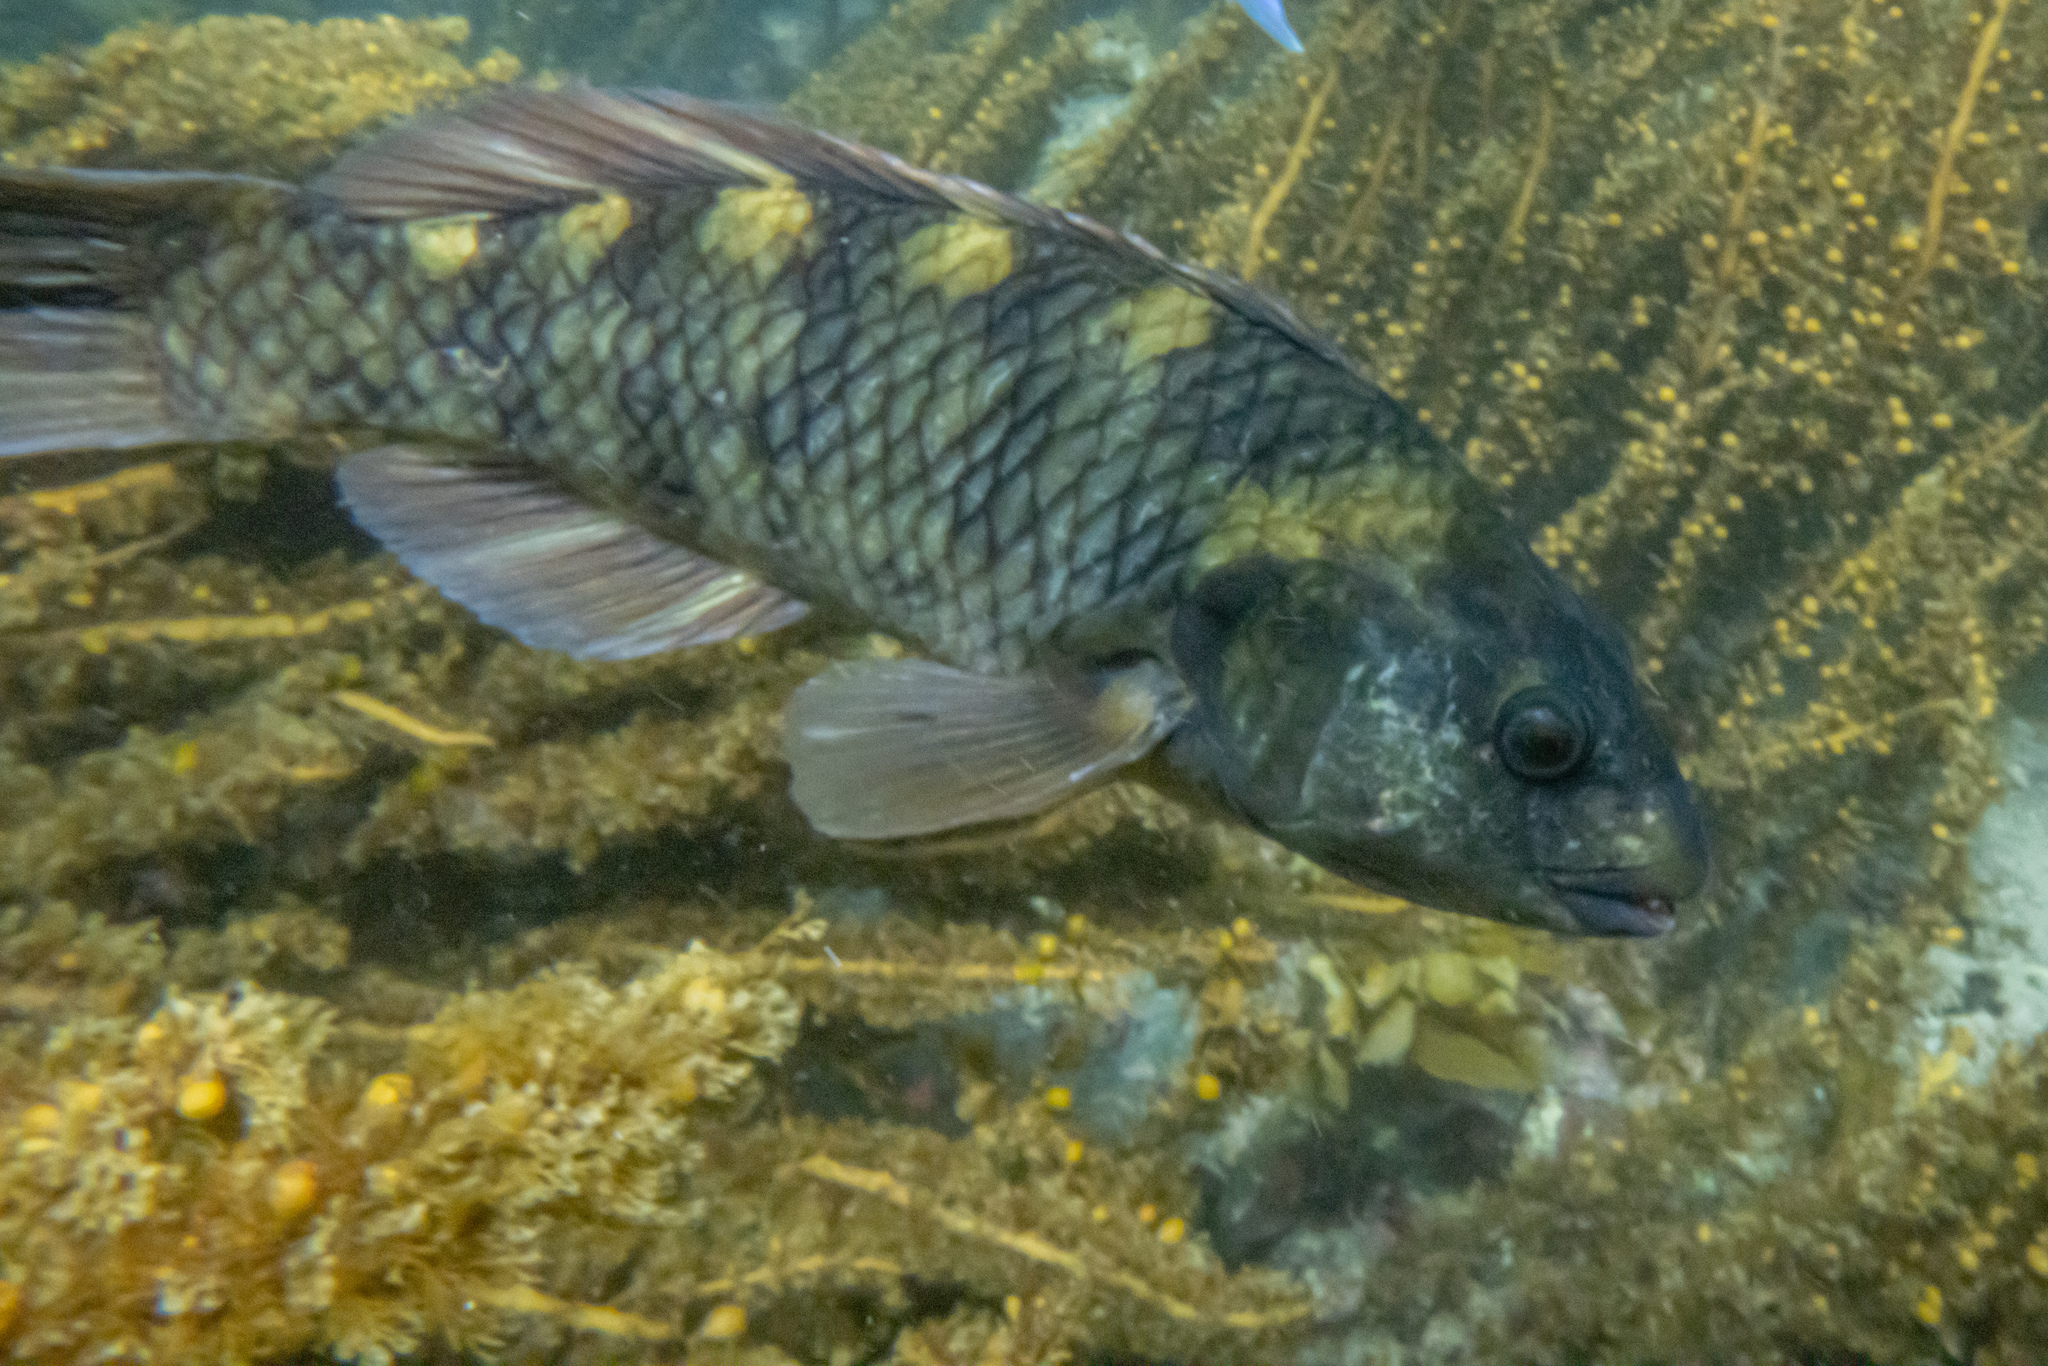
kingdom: Animalia
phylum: Chordata
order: Perciformes
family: Labridae
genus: Notolabrus
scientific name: Notolabrus fucicola
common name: Banded parrotfish
